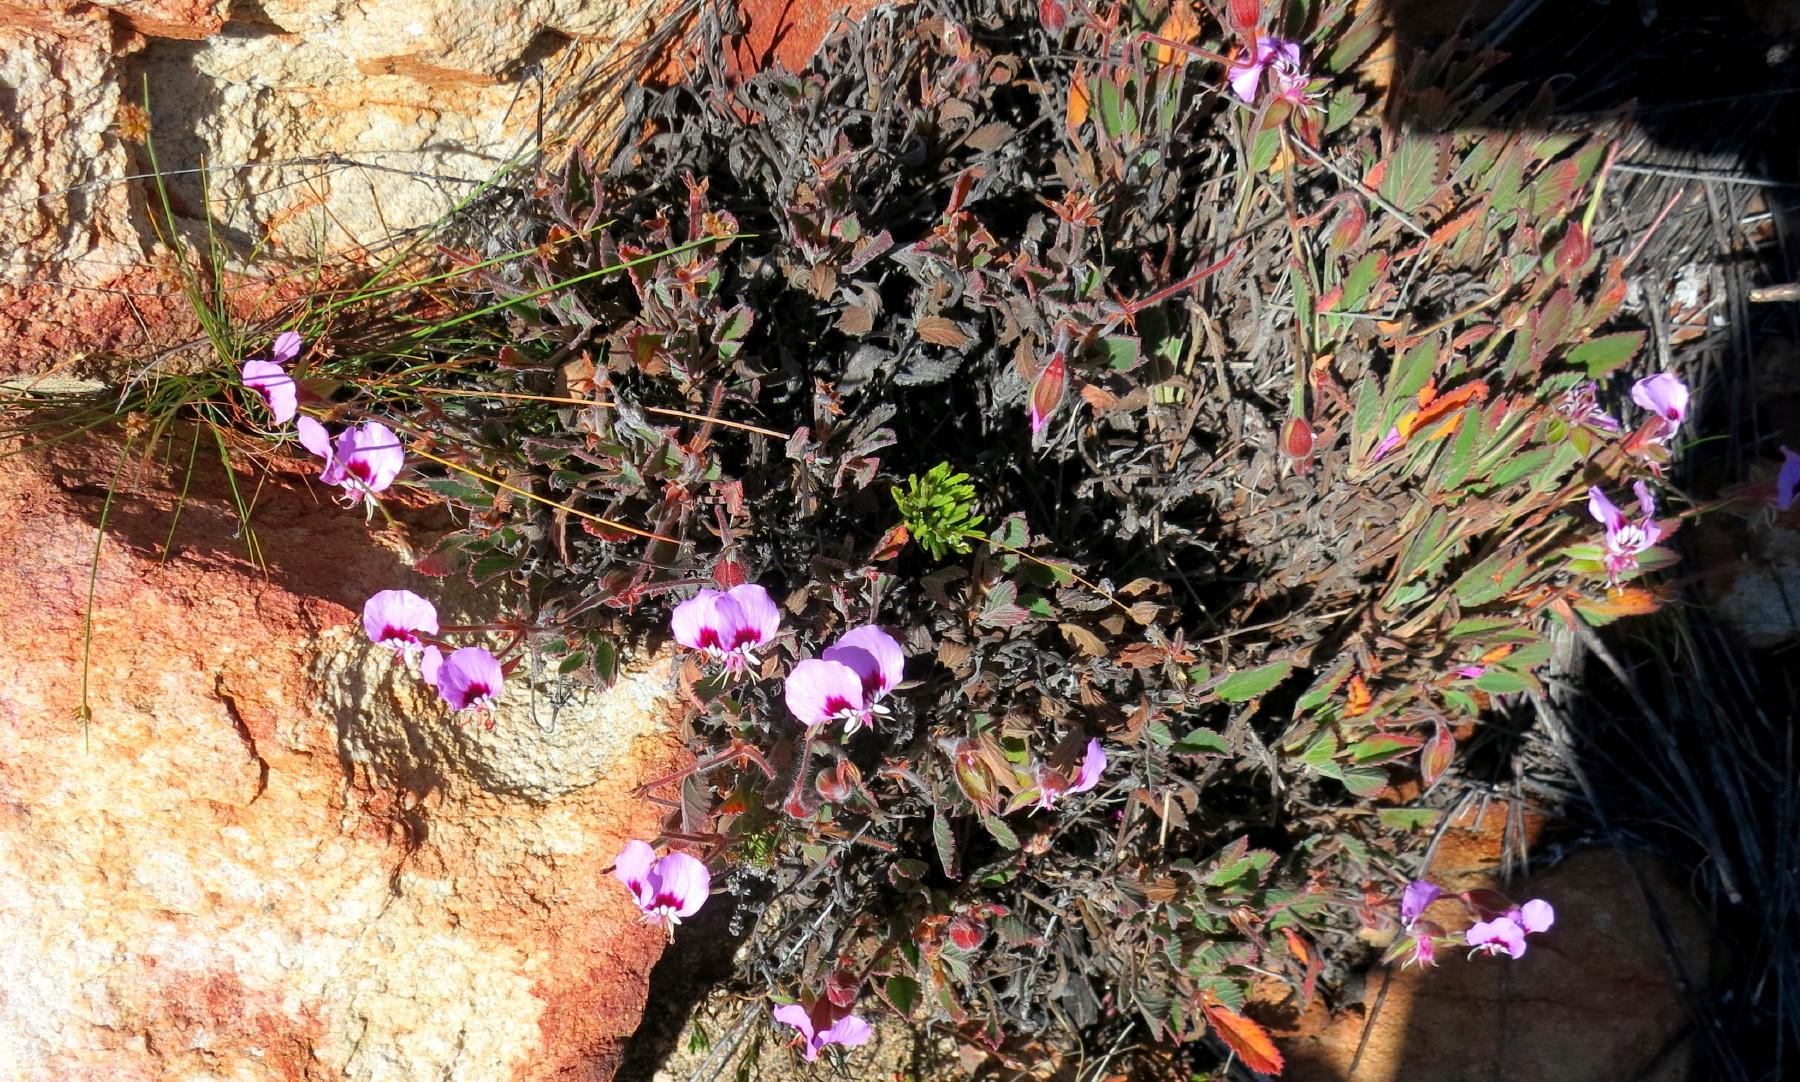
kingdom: Plantae
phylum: Tracheophyta
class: Magnoliopsida
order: Geraniales
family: Geraniaceae
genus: Pelargonium
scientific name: Pelargonium ovale
